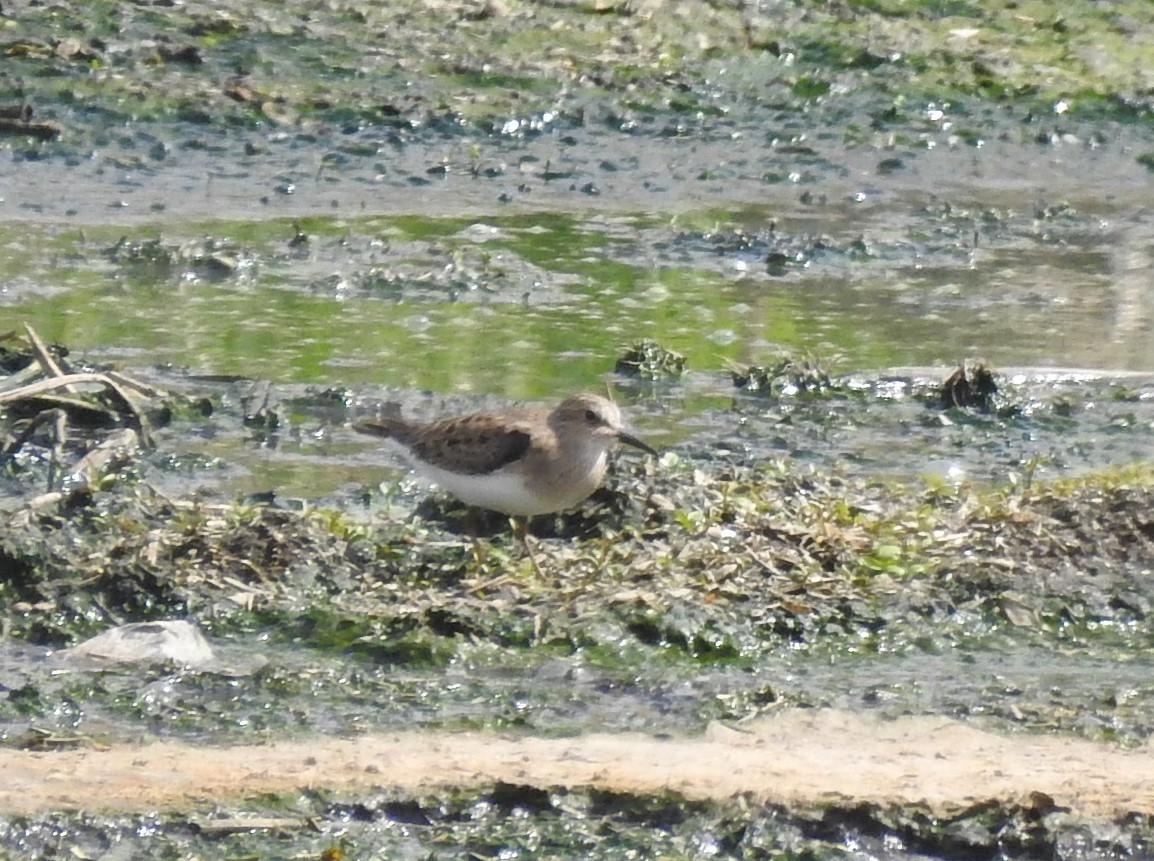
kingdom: Animalia
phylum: Chordata
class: Aves
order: Charadriiformes
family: Scolopacidae
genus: Calidris
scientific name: Calidris temminckii
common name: Temminck's stint
